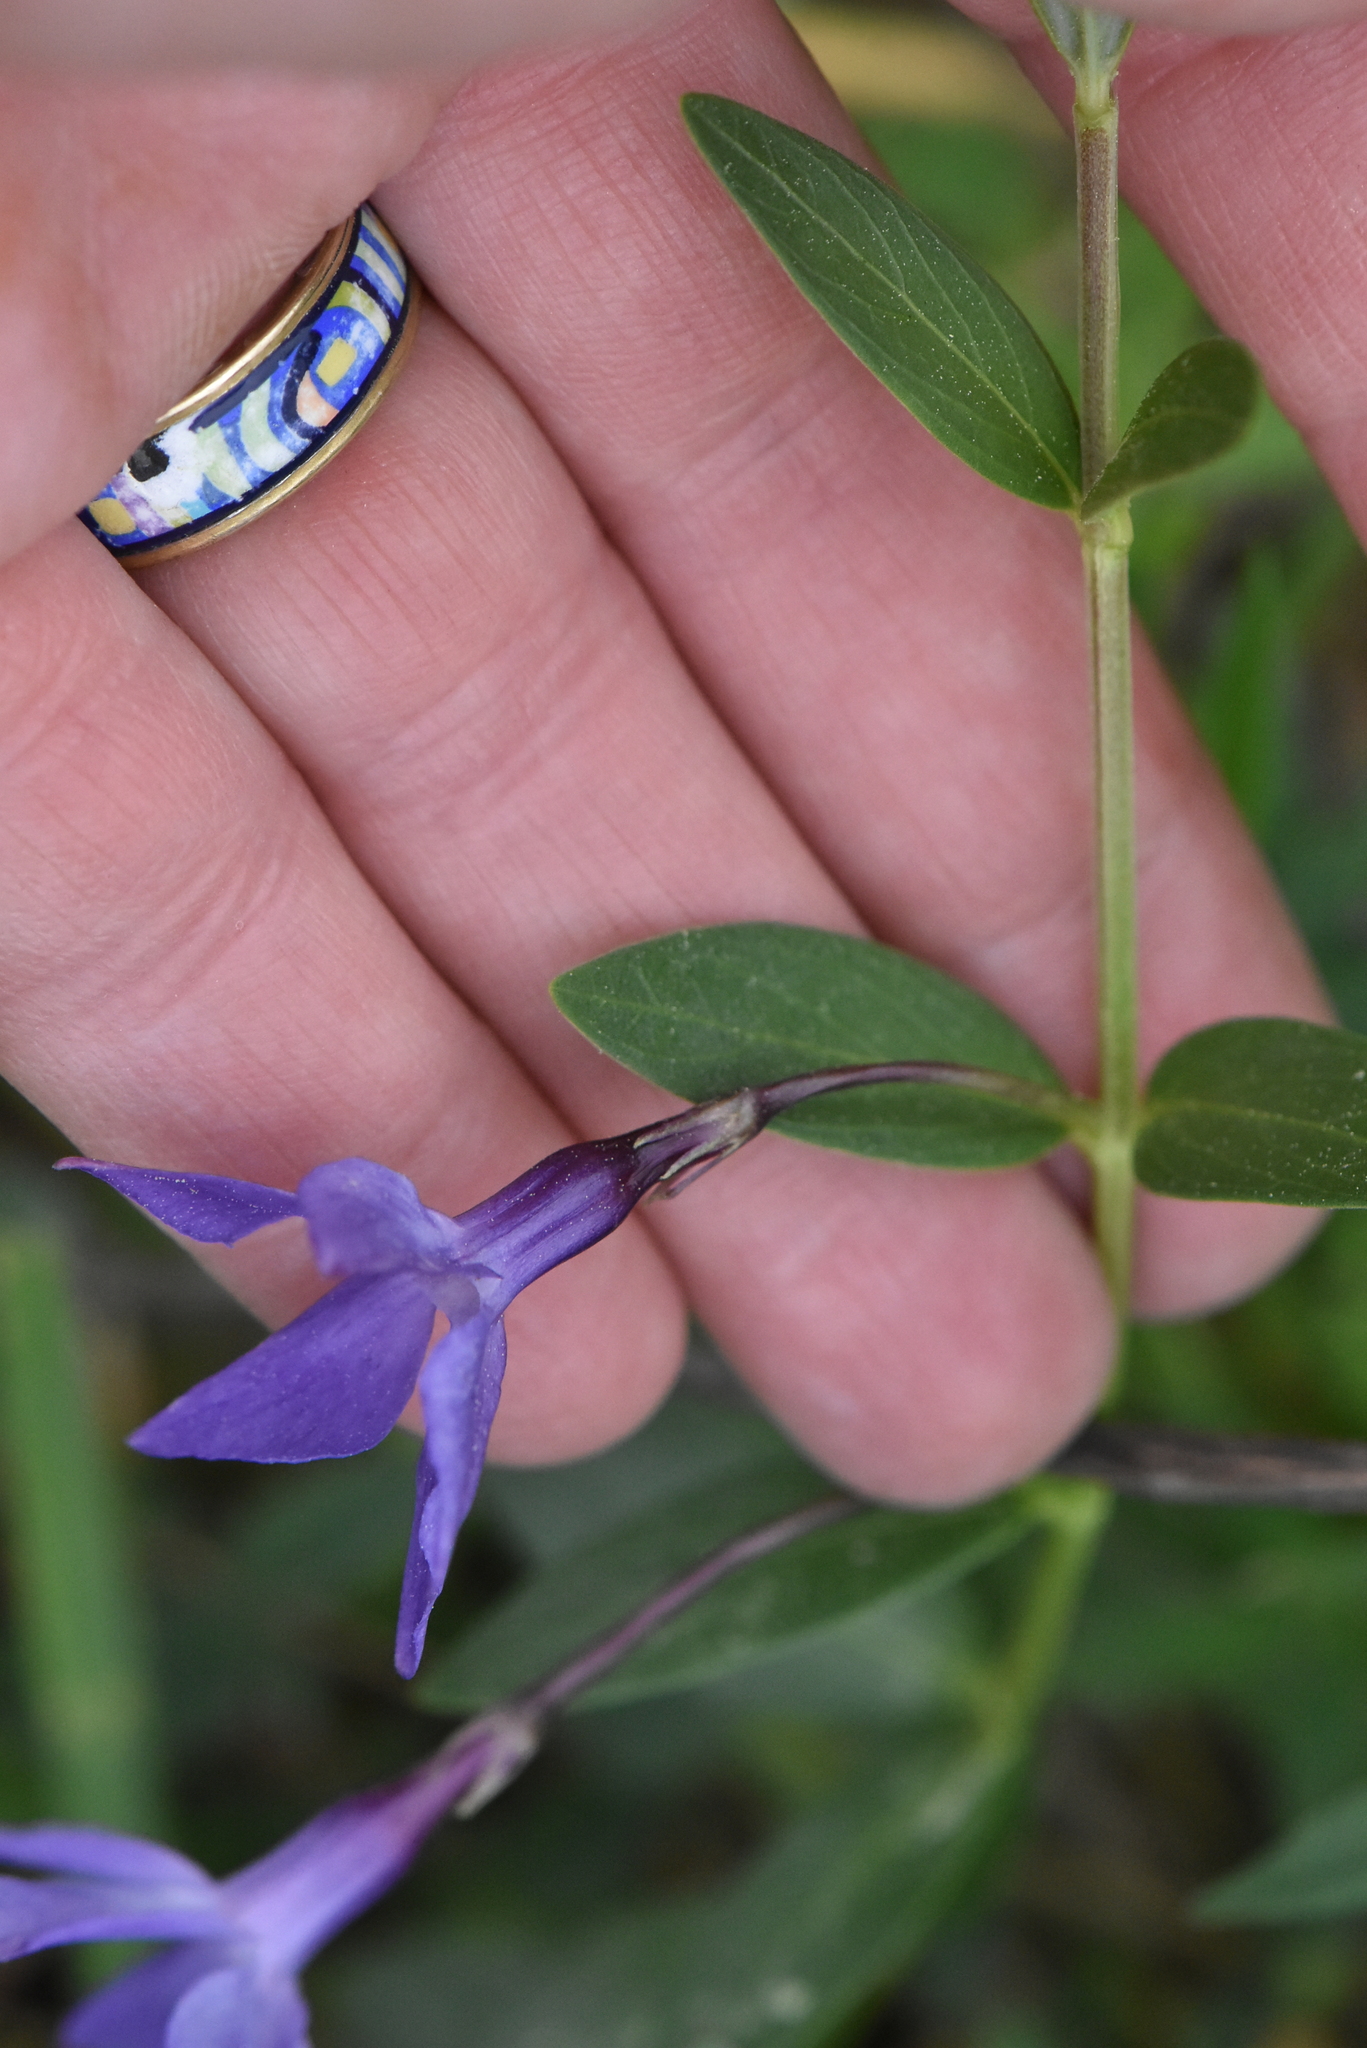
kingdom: Plantae
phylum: Tracheophyta
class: Magnoliopsida
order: Gentianales
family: Apocynaceae
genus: Vinca
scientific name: Vinca herbacea
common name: Herbaceous periwinkle
